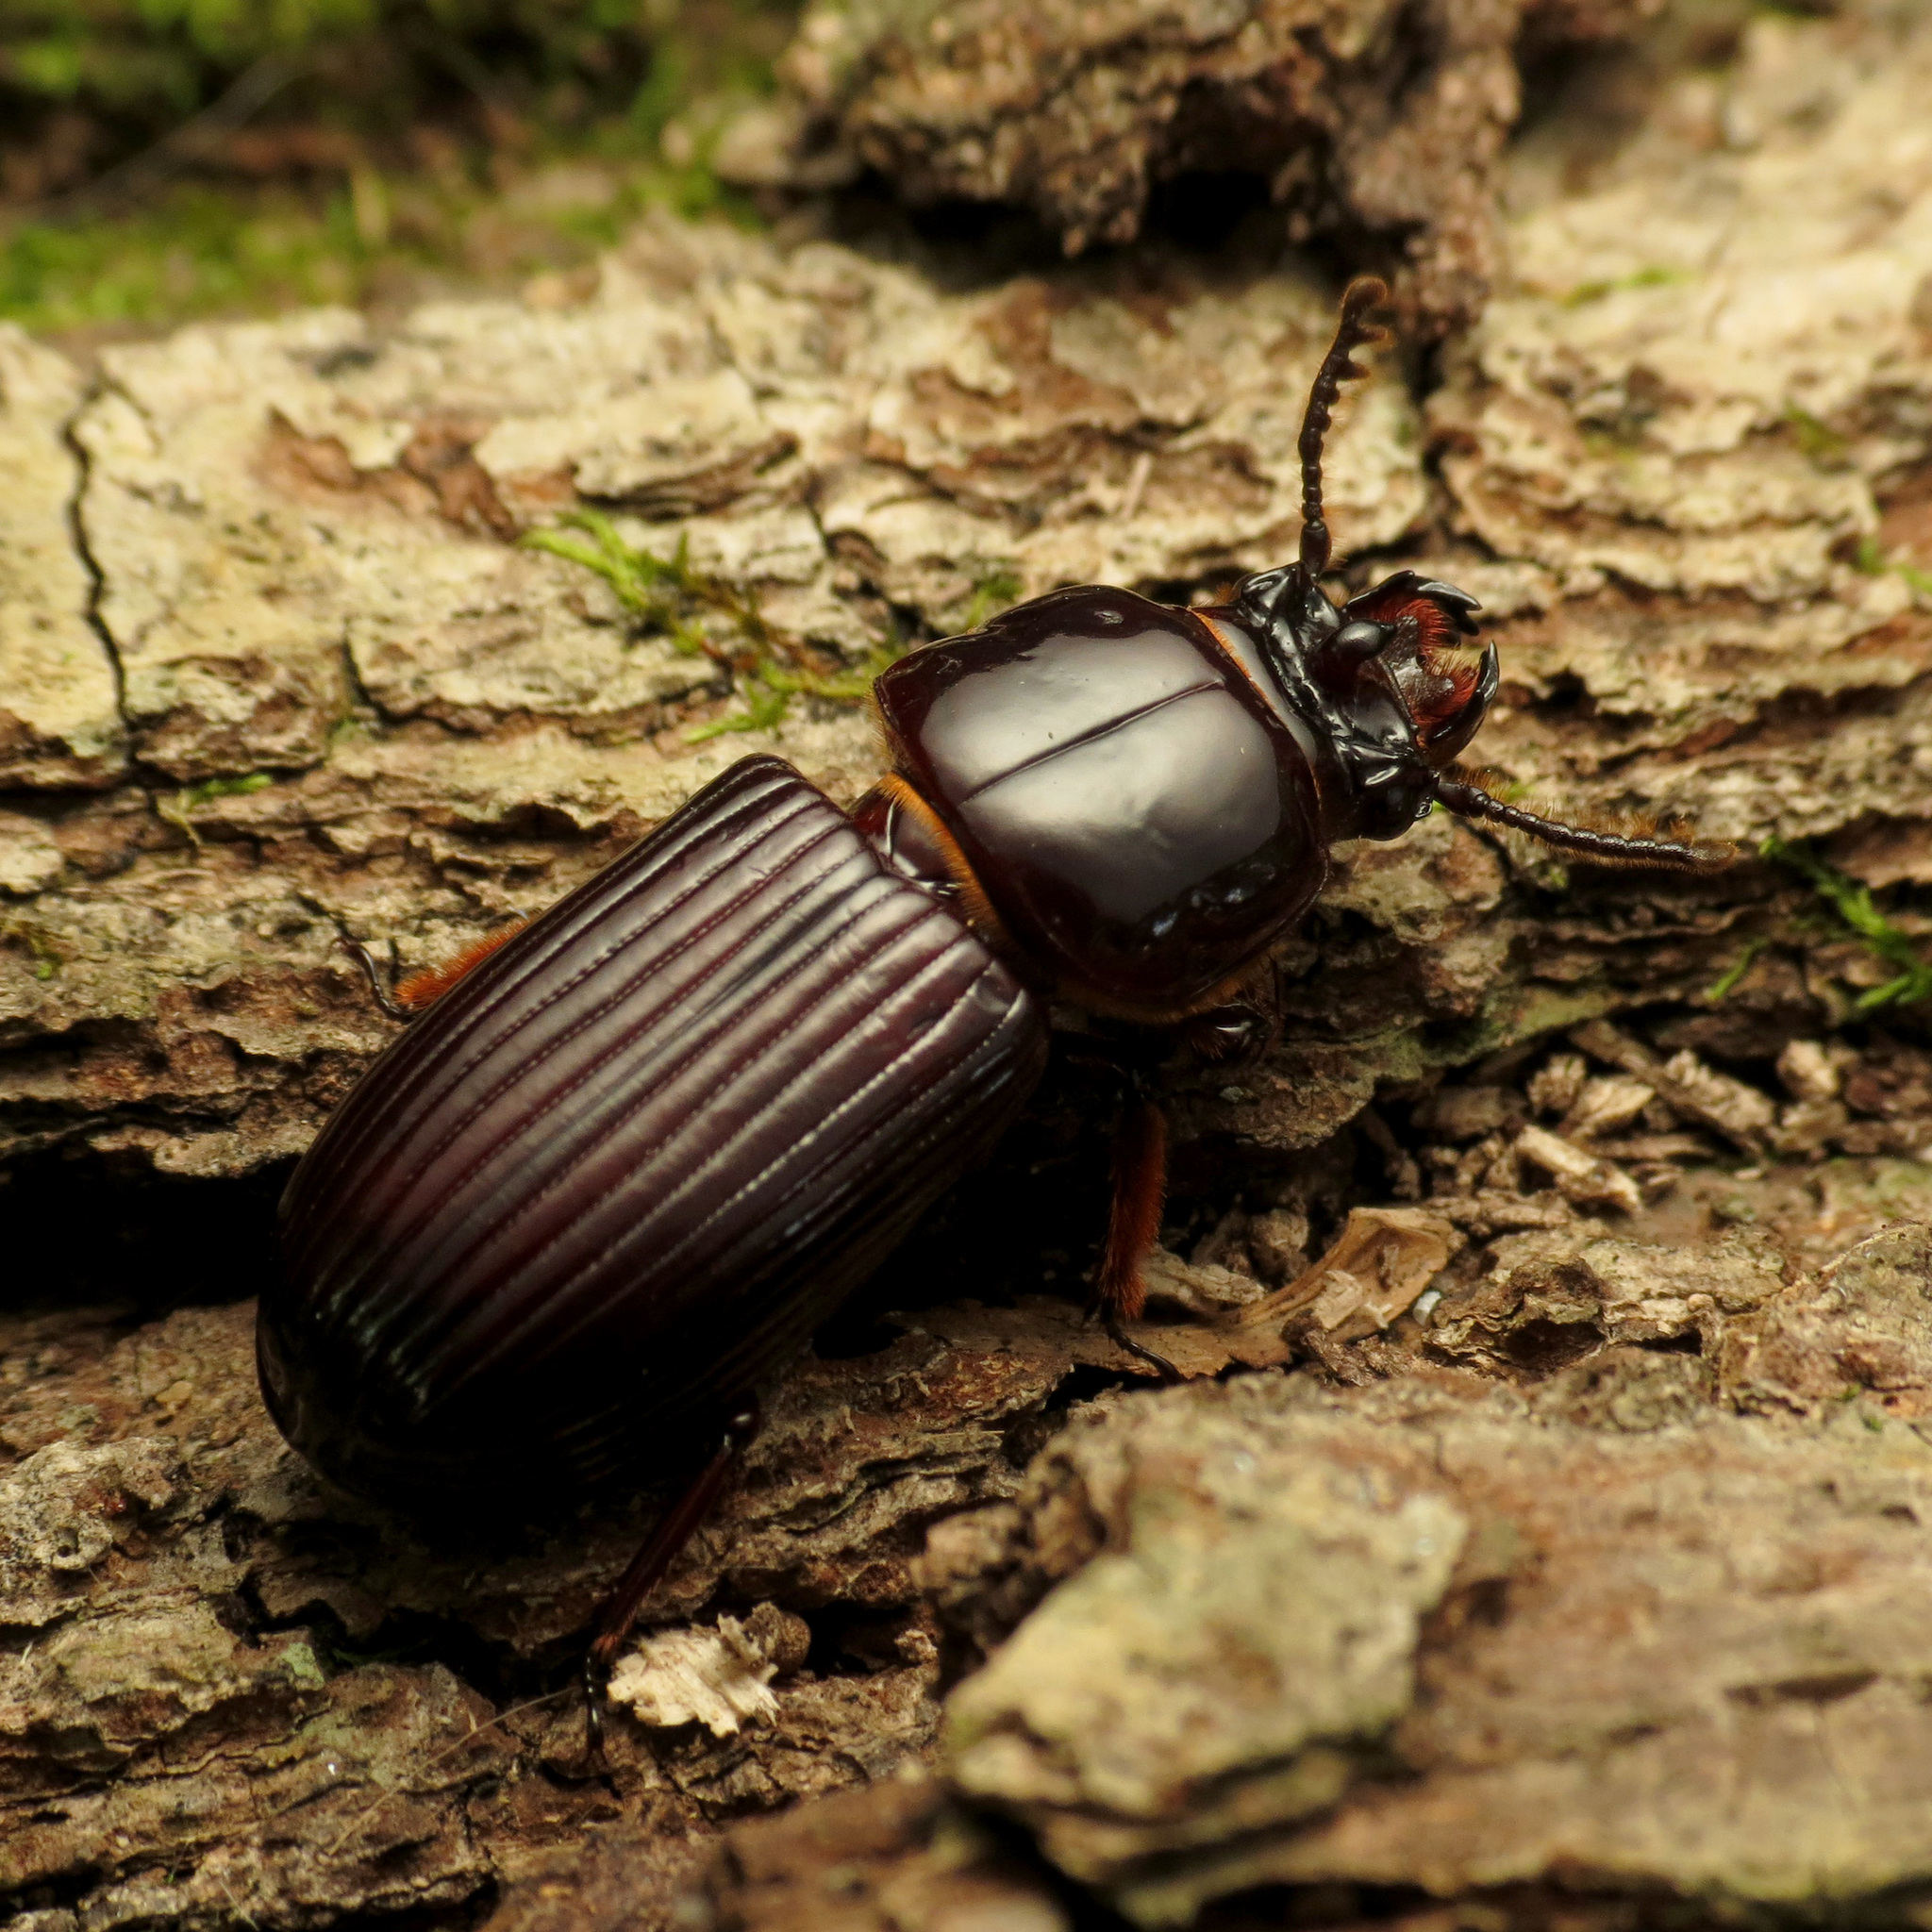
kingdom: Animalia
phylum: Arthropoda
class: Insecta
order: Coleoptera
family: Passalidae
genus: Odontotaenius
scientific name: Odontotaenius disjunctus
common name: Patent leather beetle
